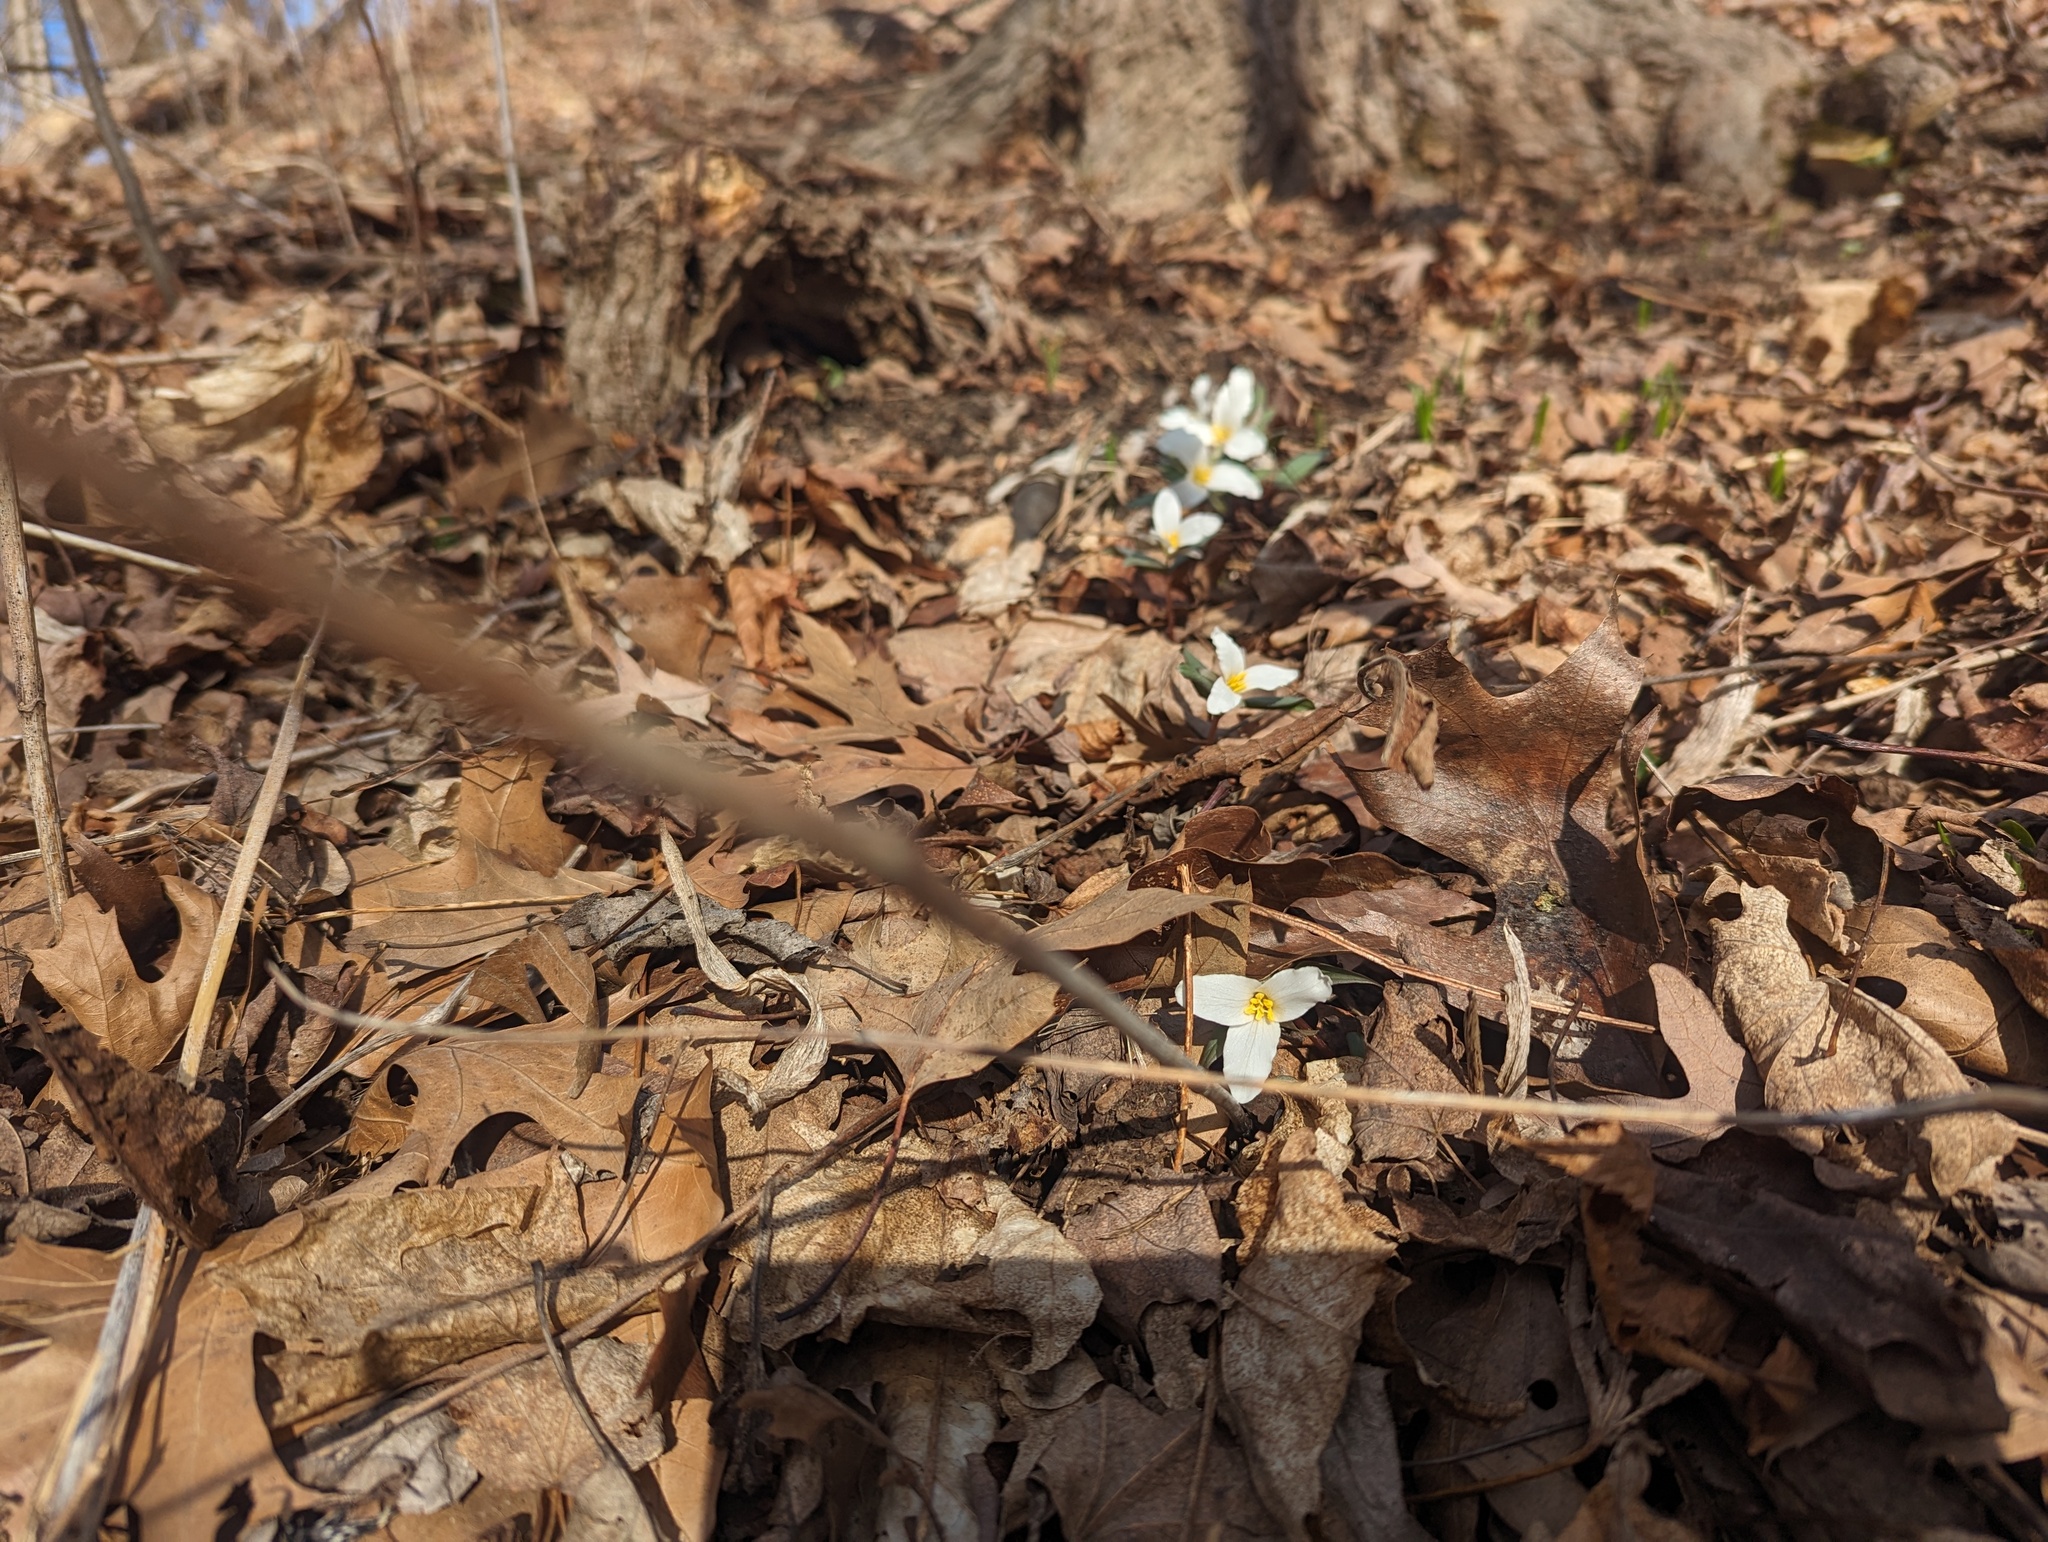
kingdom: Plantae
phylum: Tracheophyta
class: Liliopsida
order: Liliales
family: Melanthiaceae
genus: Trillium
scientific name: Trillium nivale
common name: Dwarf white trillium
